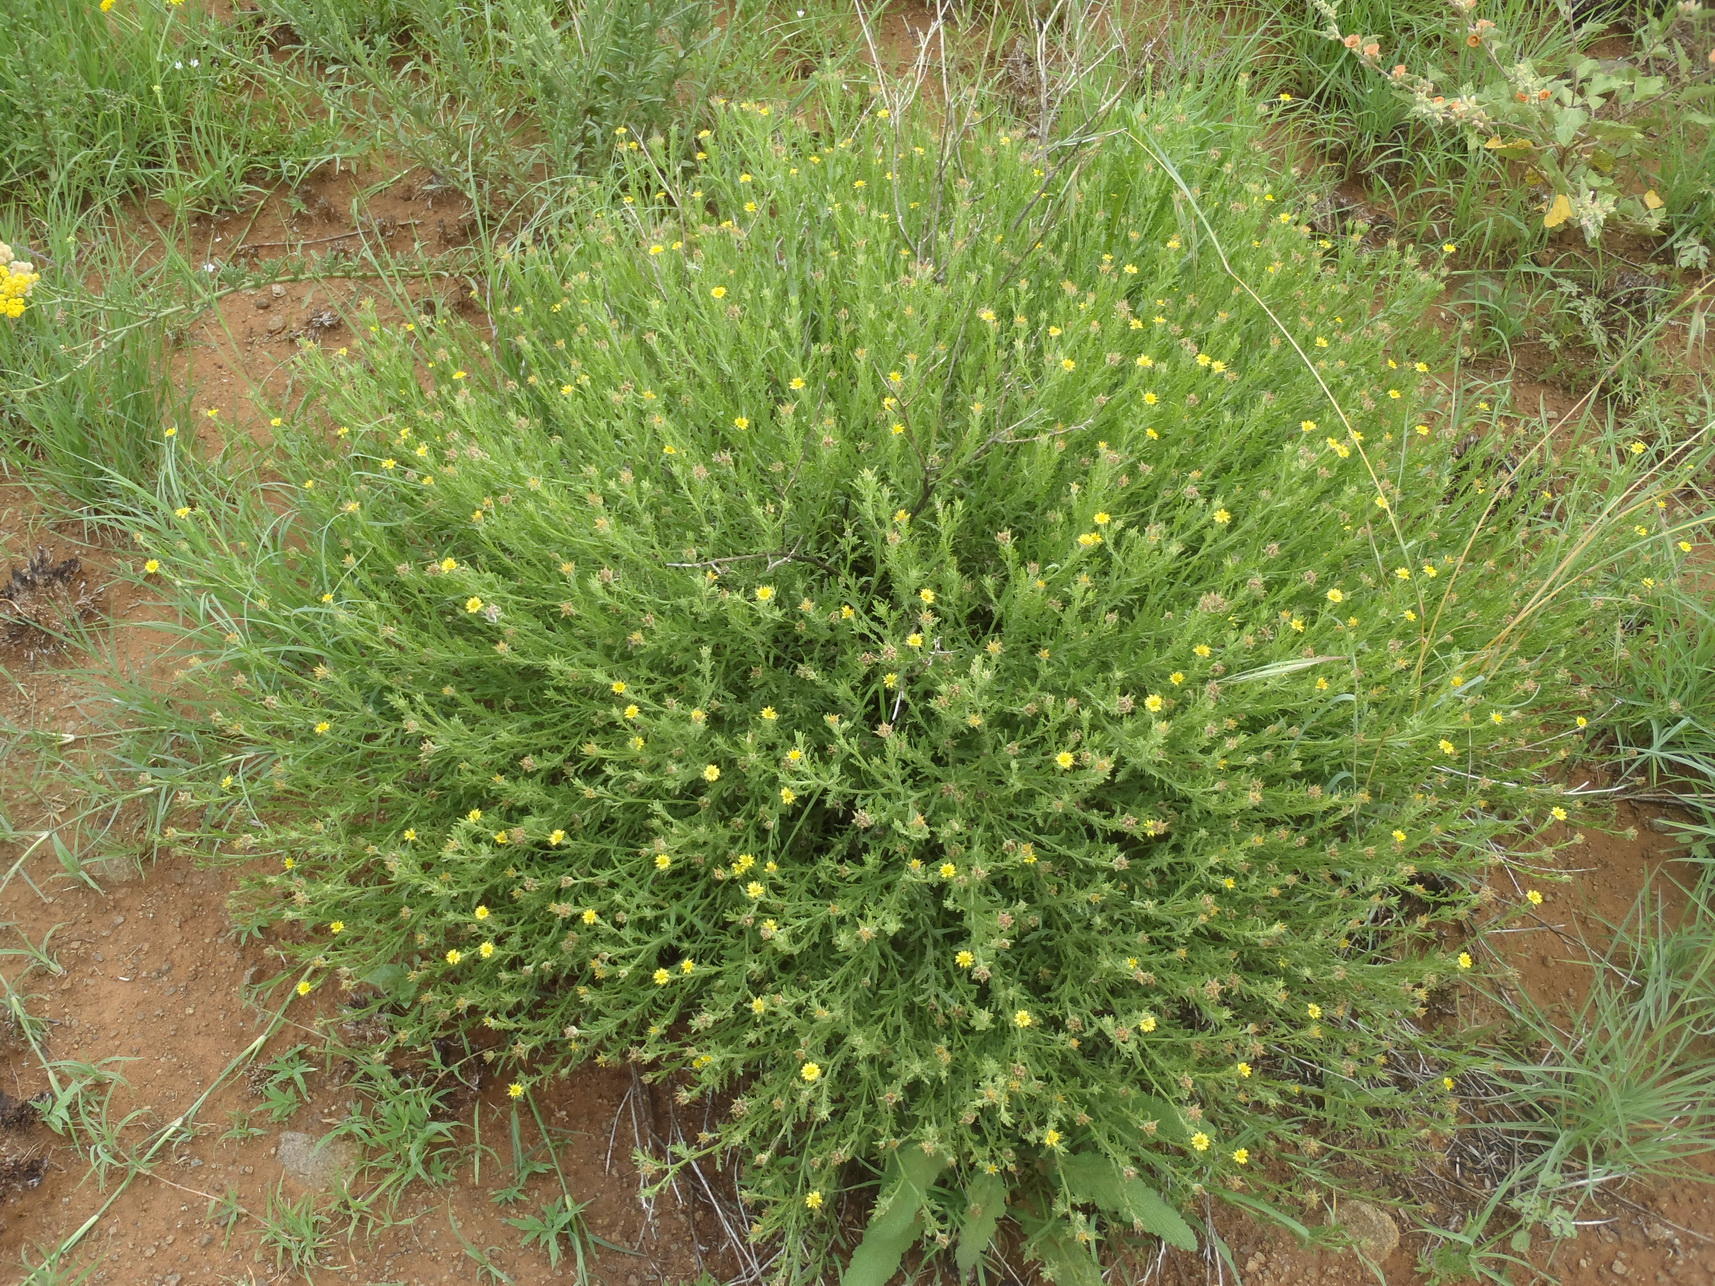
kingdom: Plantae
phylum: Tracheophyta
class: Magnoliopsida
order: Asterales
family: Asteraceae
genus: Osteospermum
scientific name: Osteospermum muricatum
